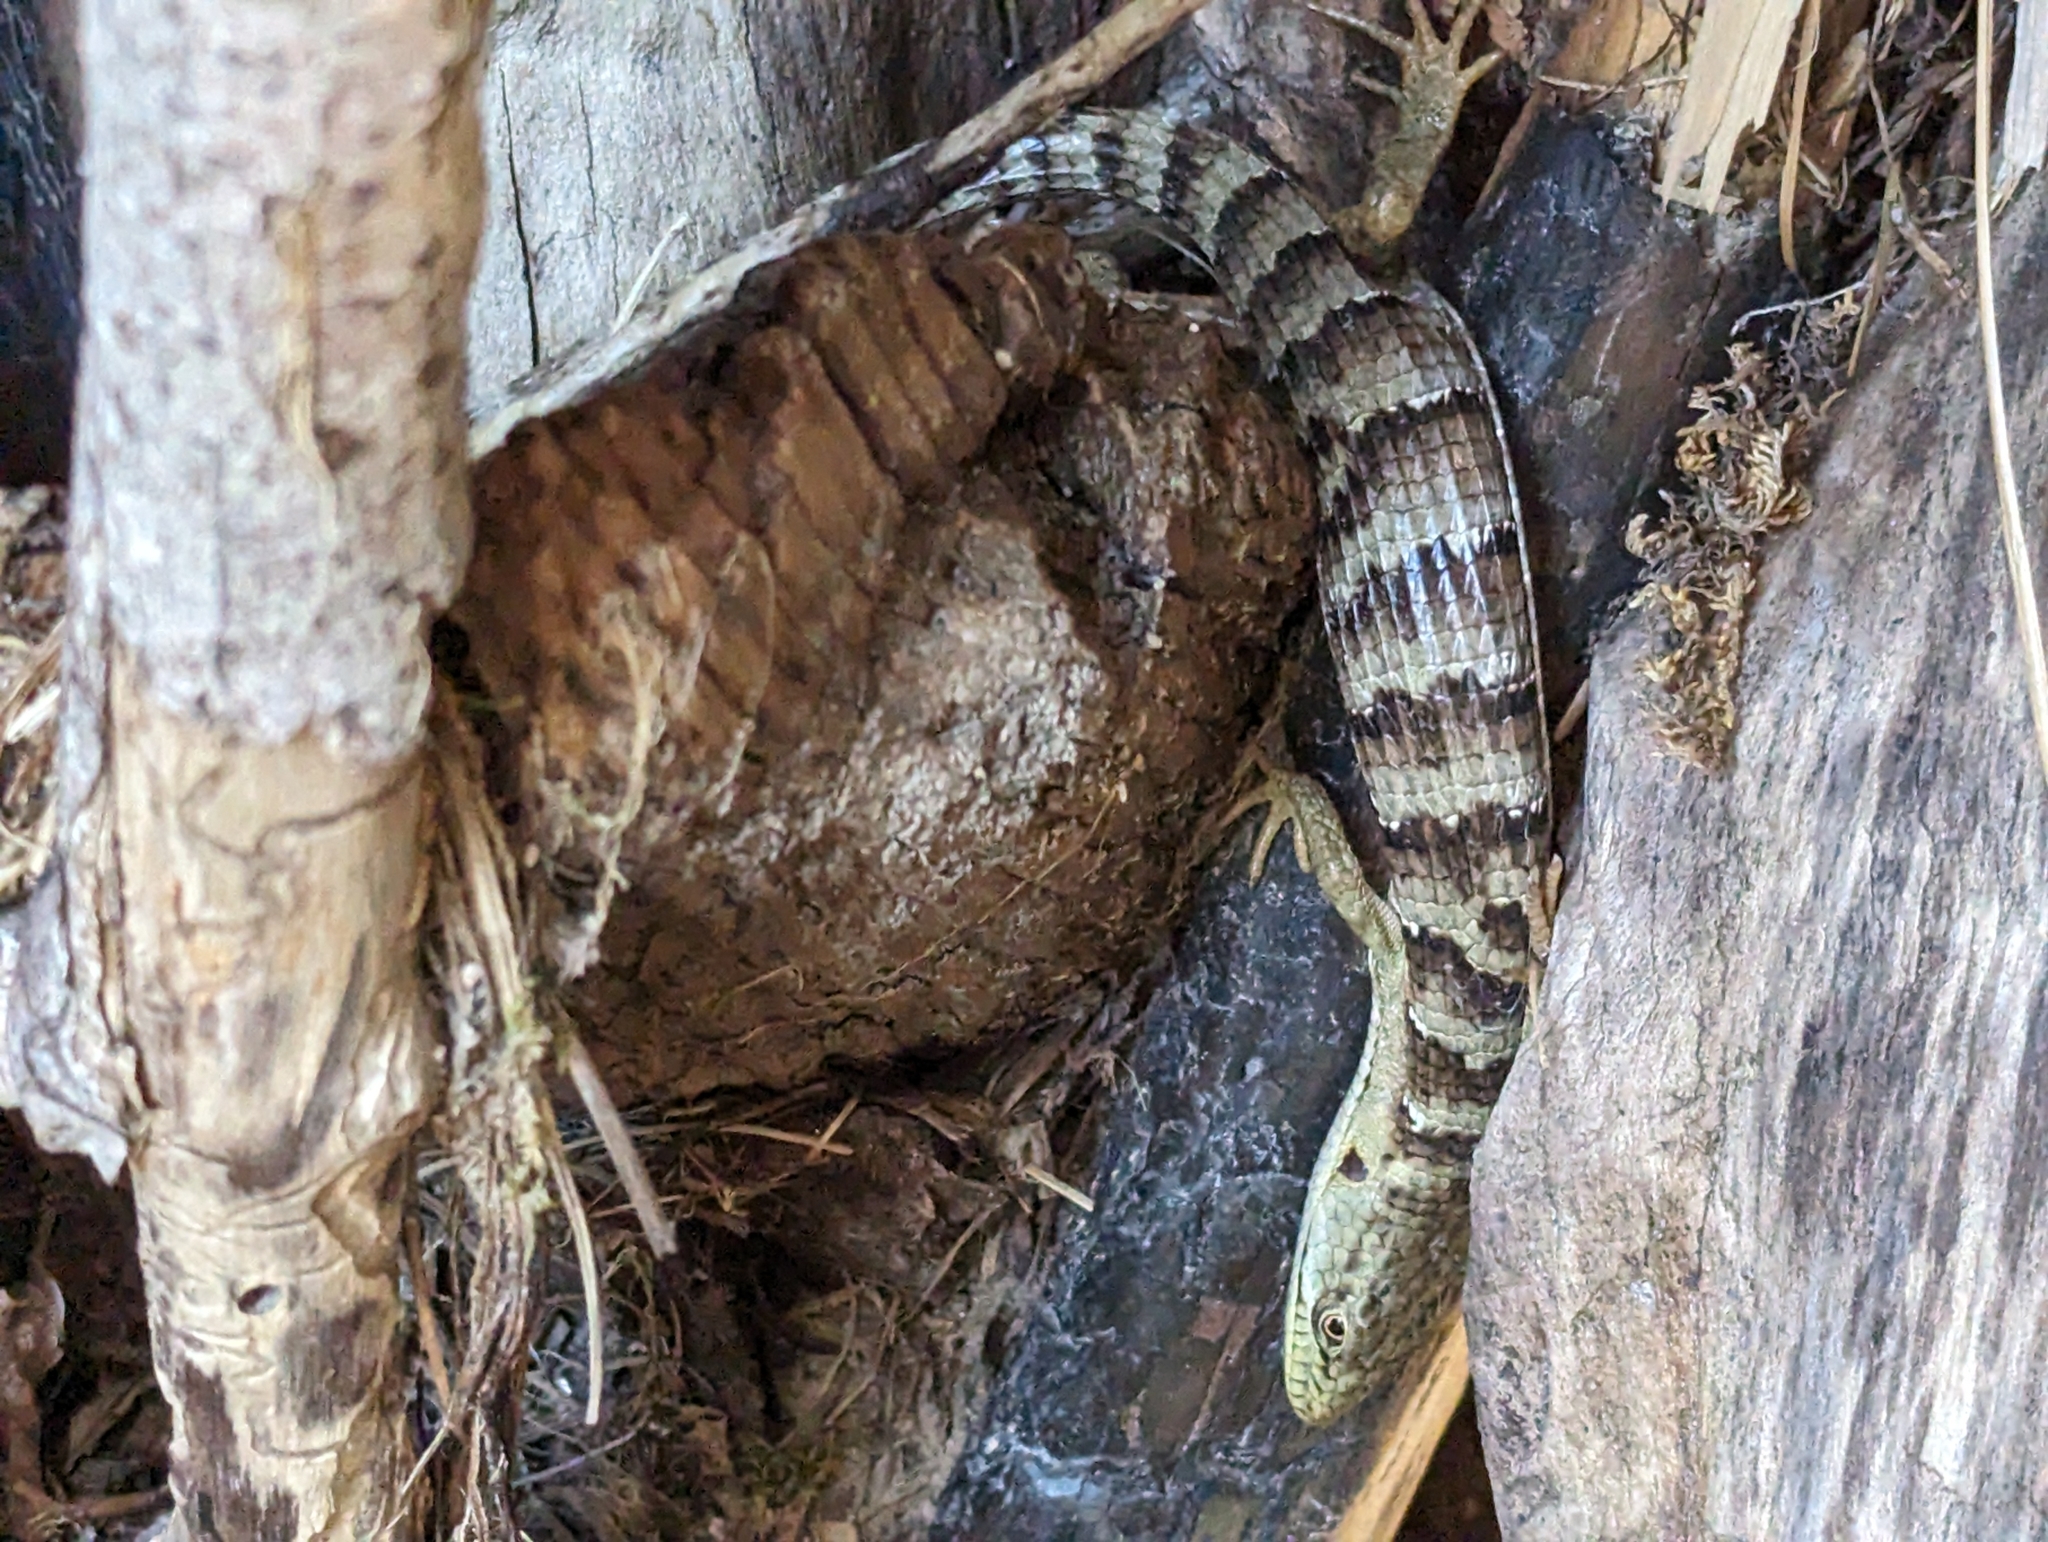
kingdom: Animalia
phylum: Chordata
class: Squamata
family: Anguidae
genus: Elgaria
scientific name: Elgaria multicarinata
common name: Southern alligator lizard
